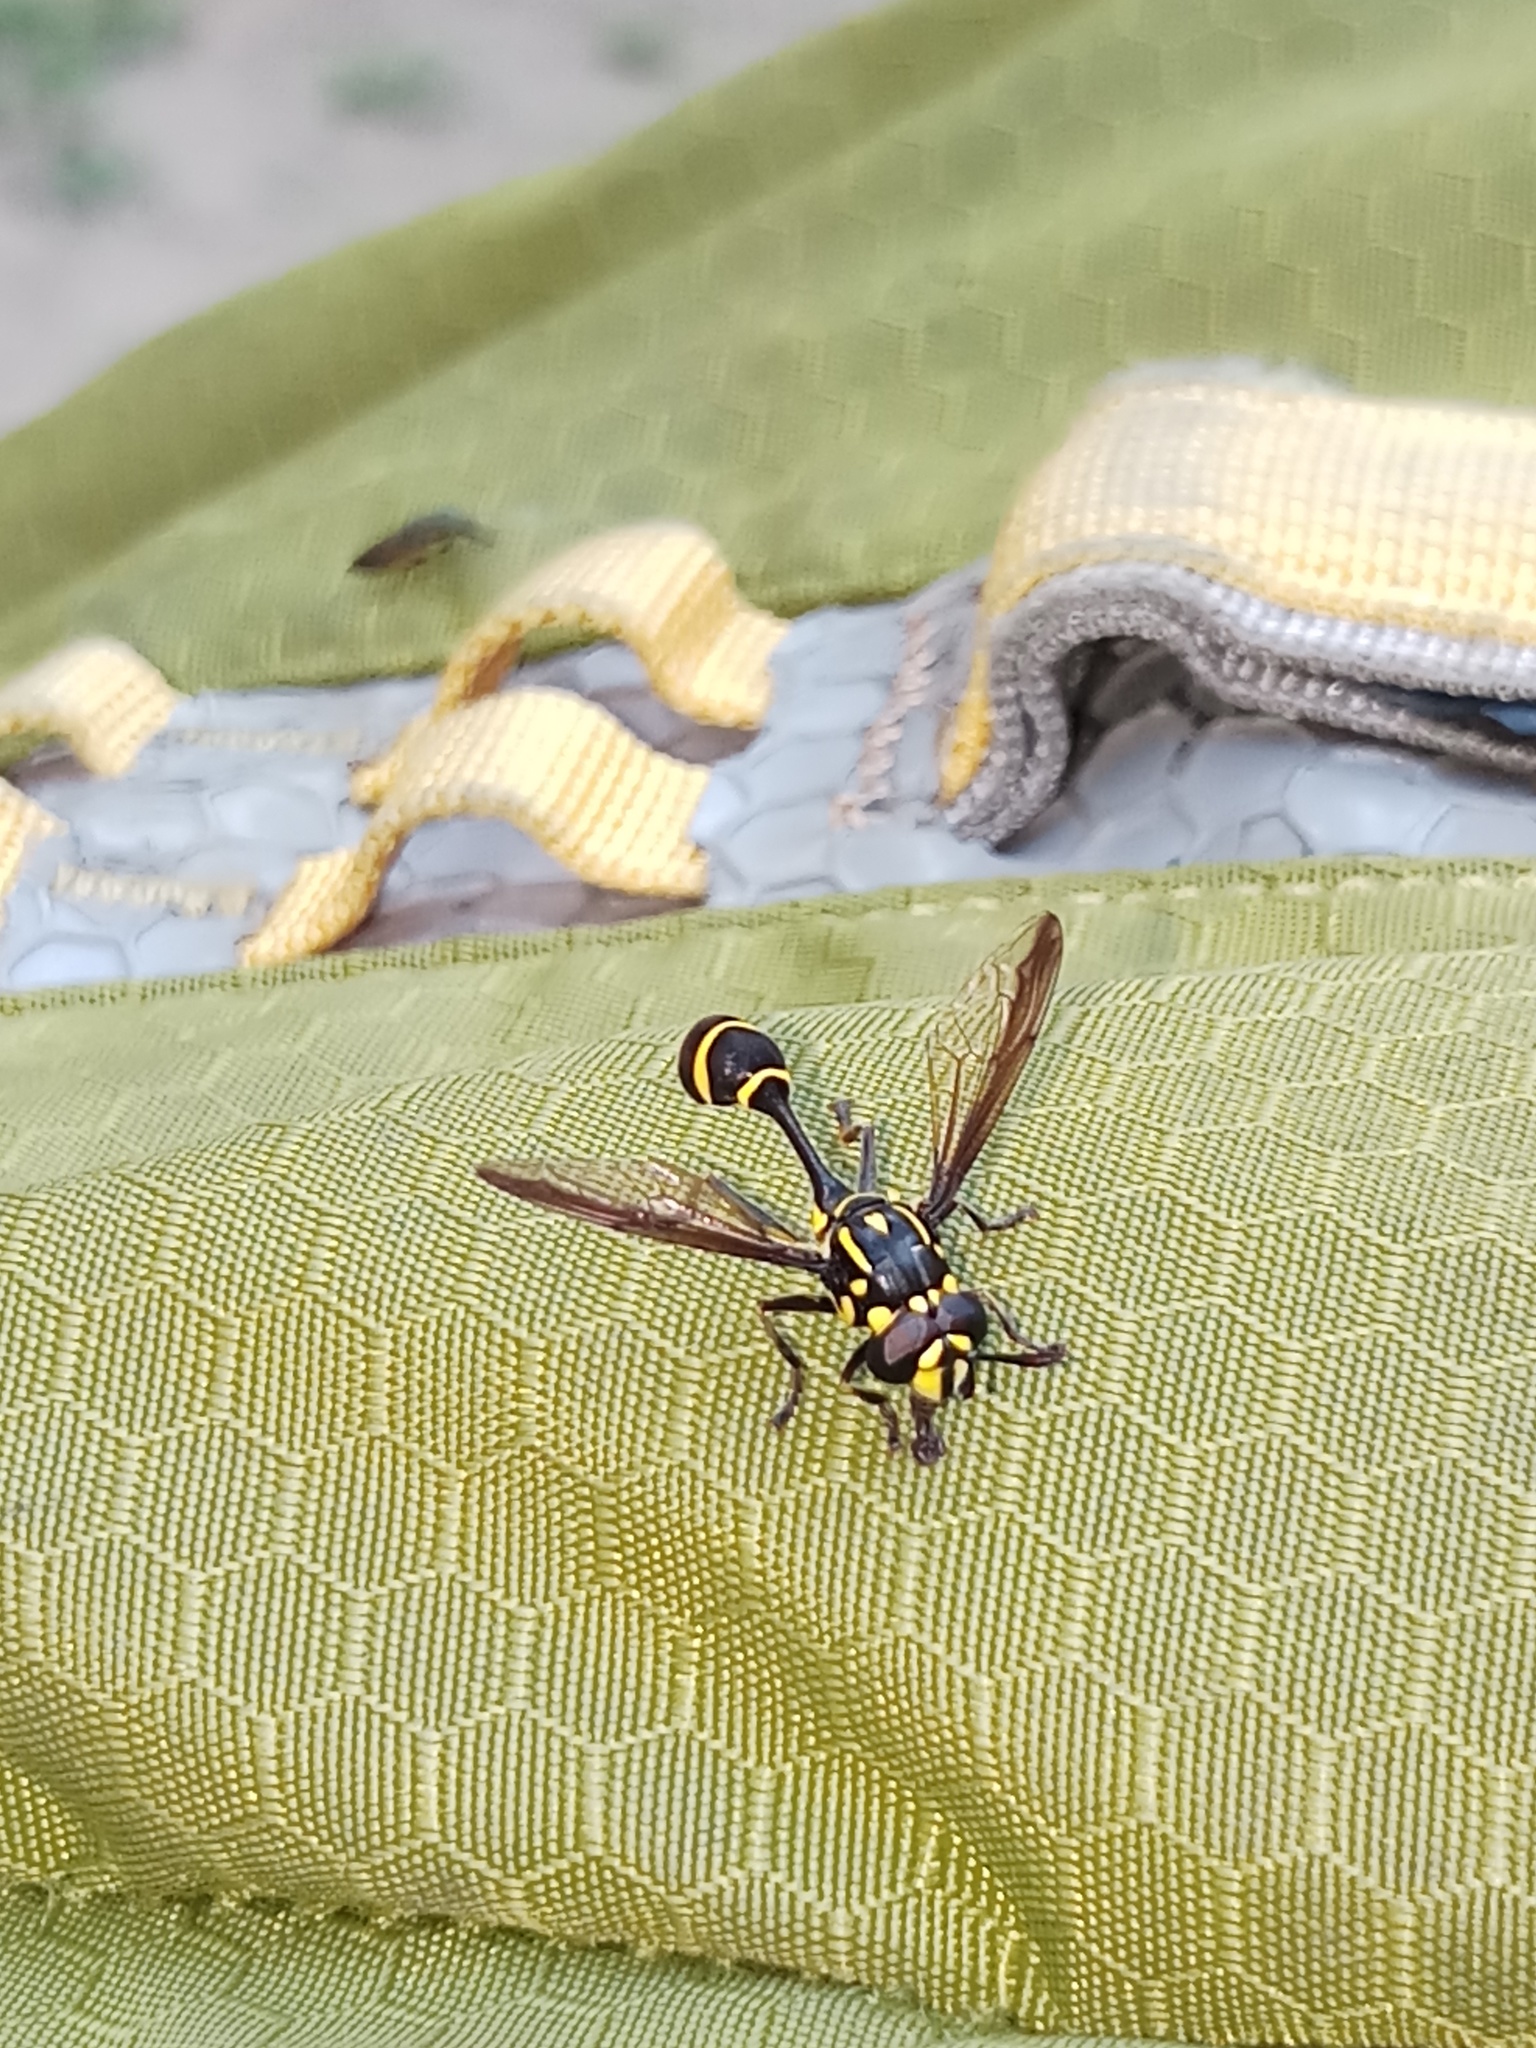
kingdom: Animalia
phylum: Arthropoda
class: Insecta
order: Diptera
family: Syrphidae
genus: Monoceromyia
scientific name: Monoceromyia trinotata
